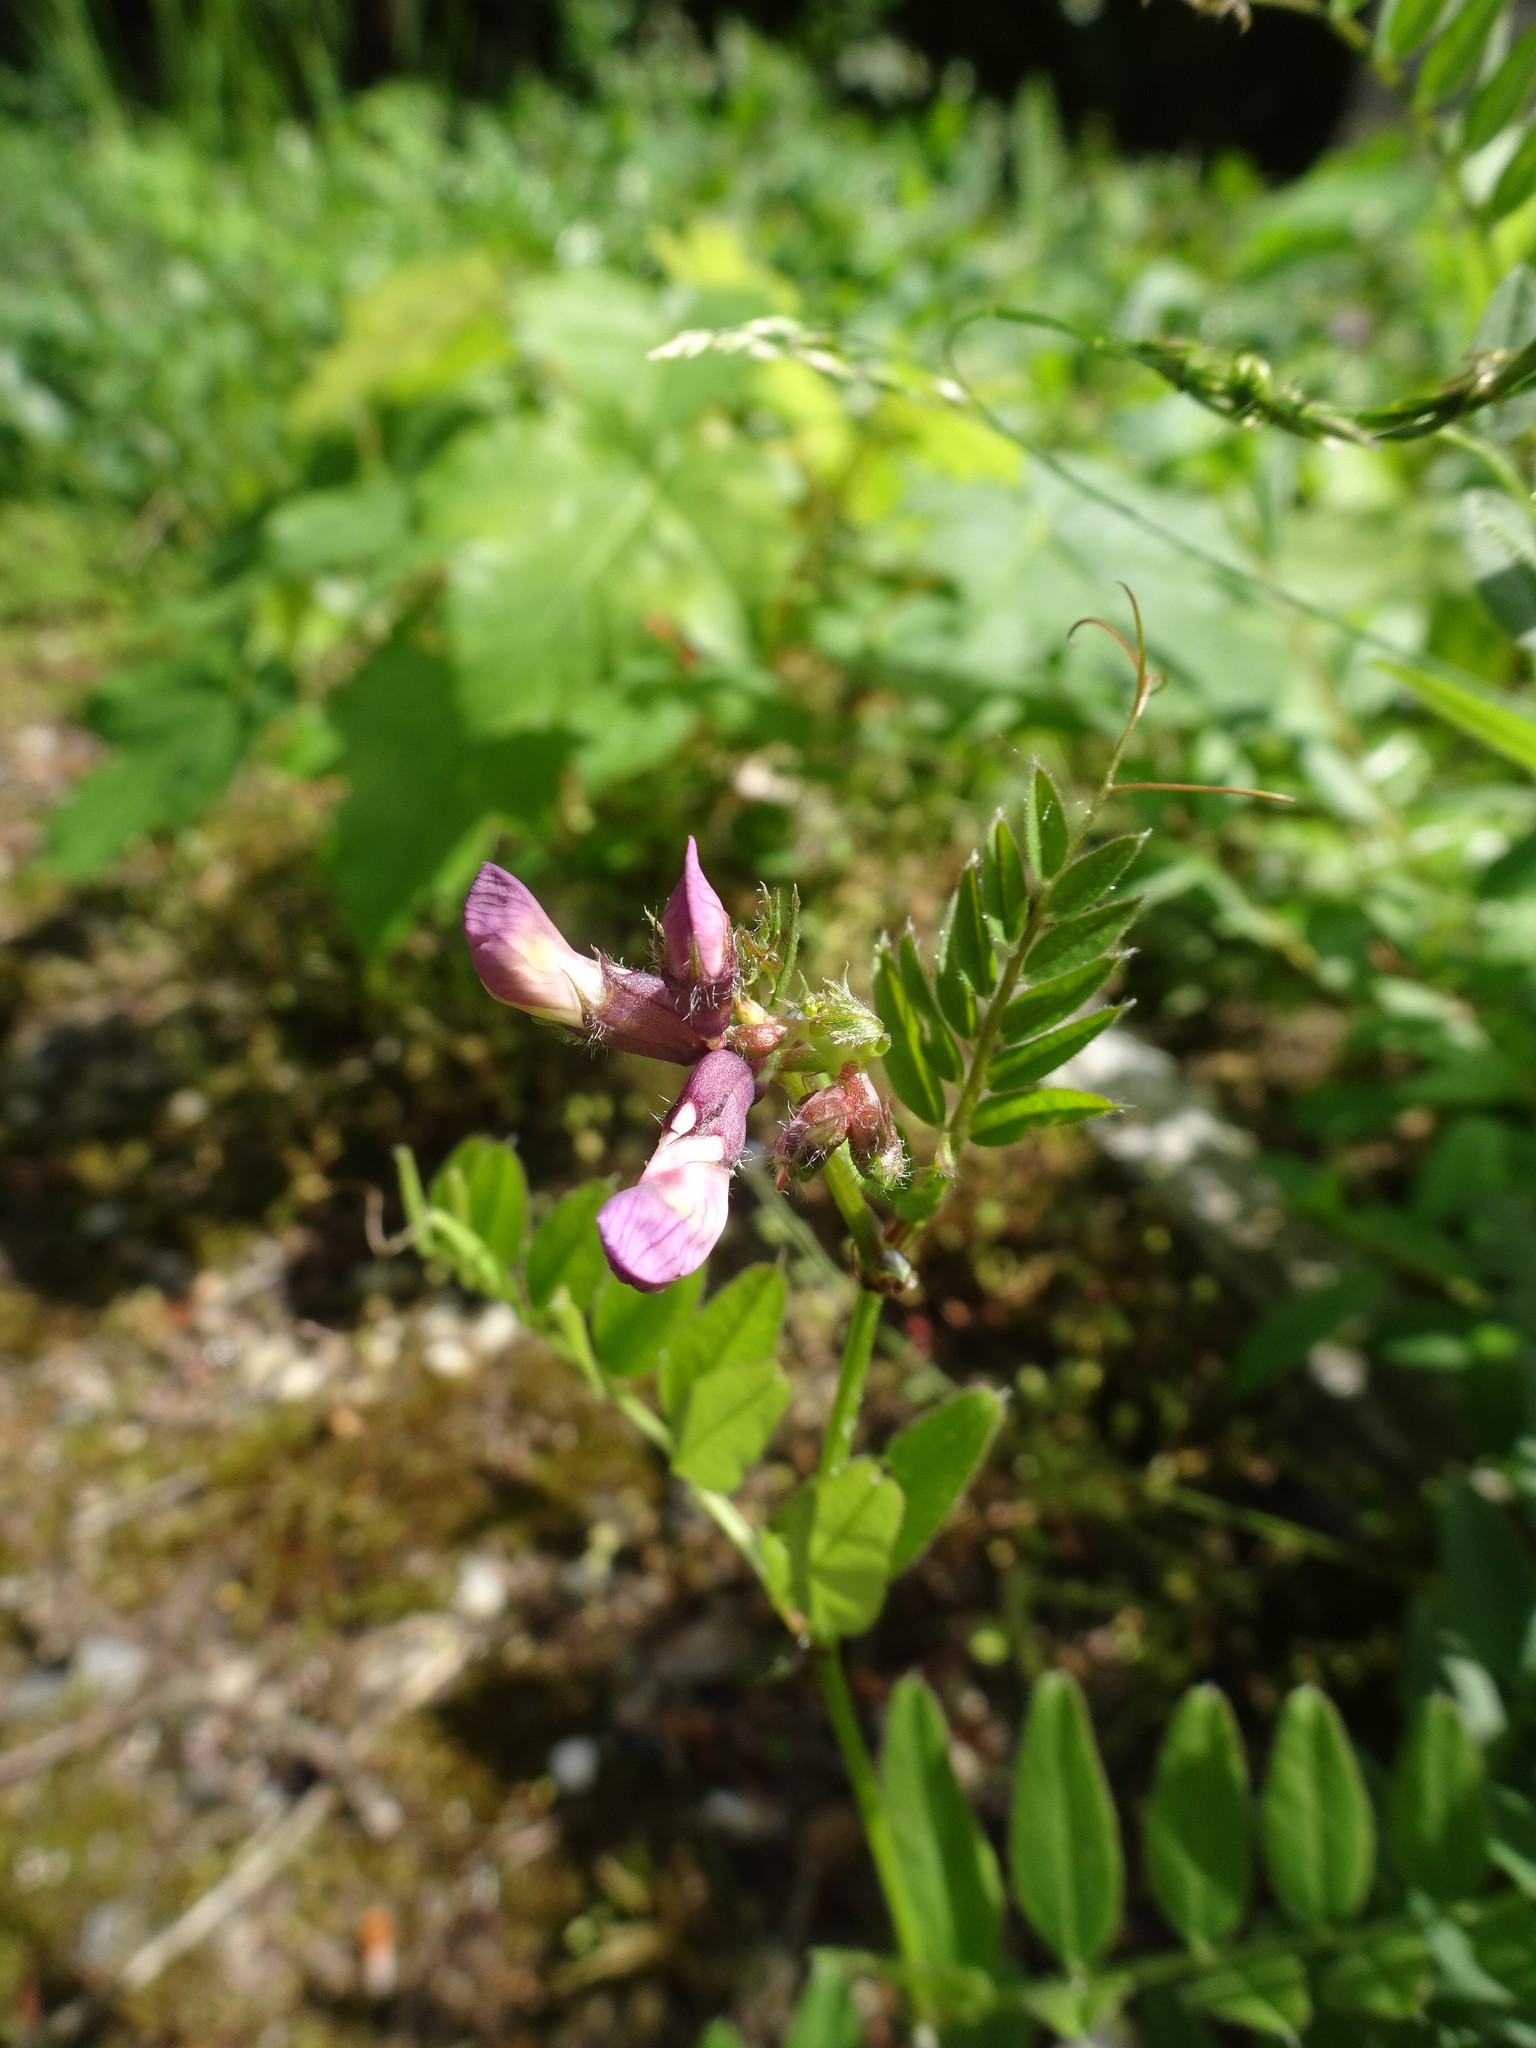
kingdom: Plantae
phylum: Tracheophyta
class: Magnoliopsida
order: Fabales
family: Fabaceae
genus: Vicia
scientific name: Vicia sepium
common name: Bush vetch
